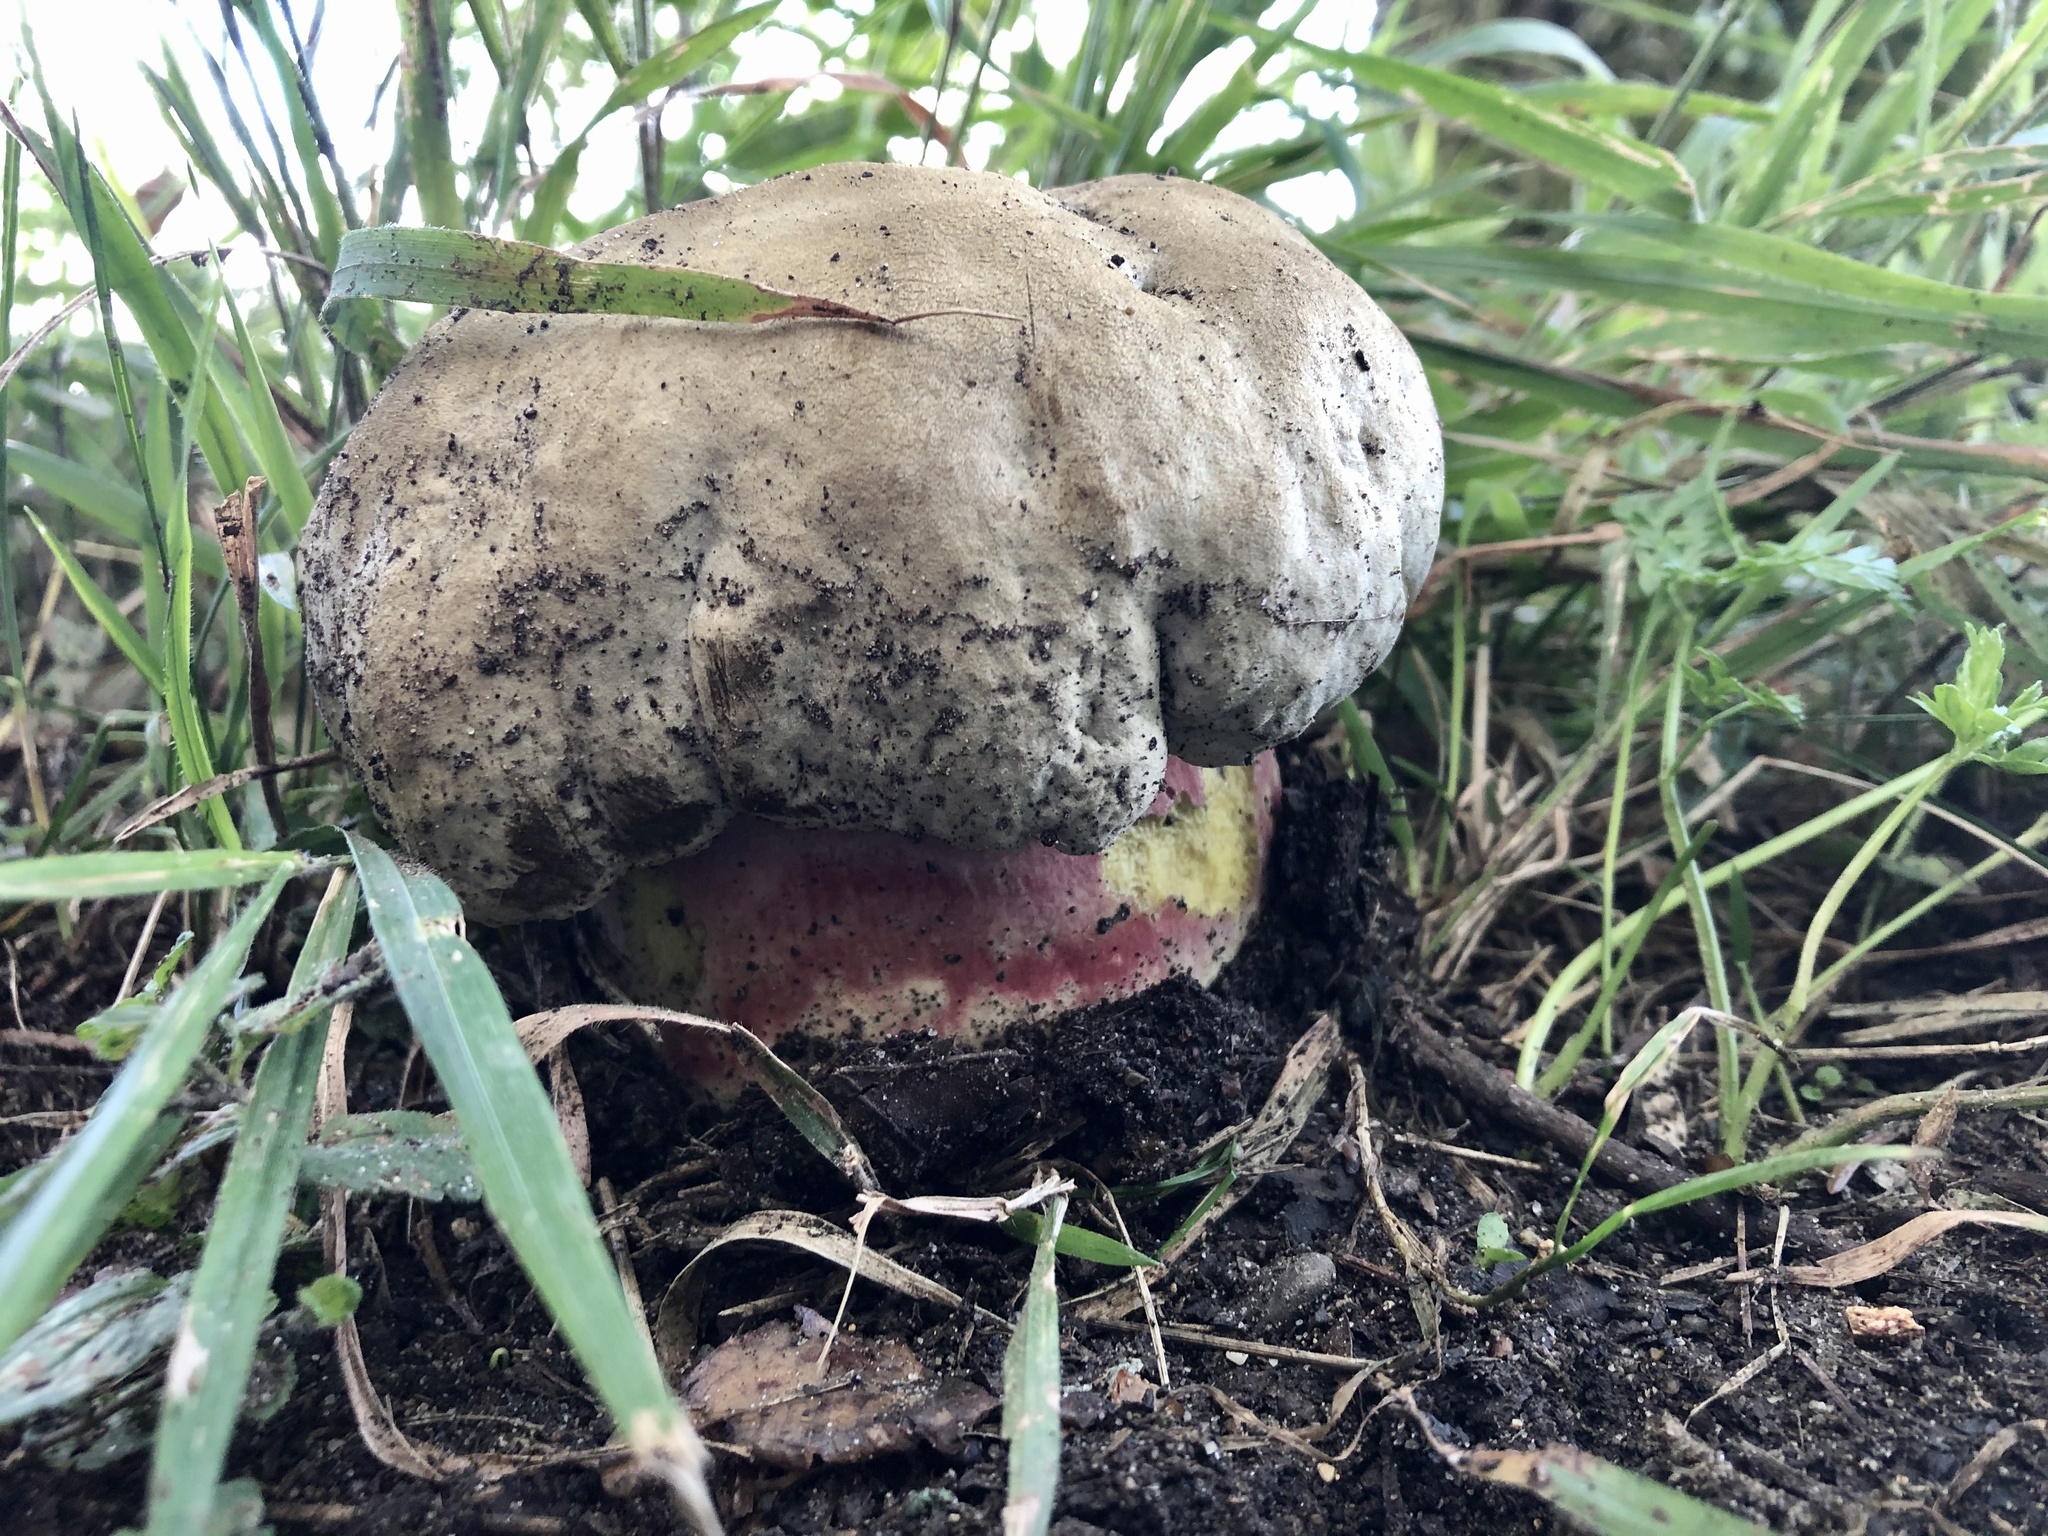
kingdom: Fungi
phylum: Basidiomycota
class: Agaricomycetes
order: Boletales
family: Boletaceae
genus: Rubroboletus
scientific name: Rubroboletus satanas
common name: Devil's bolete
